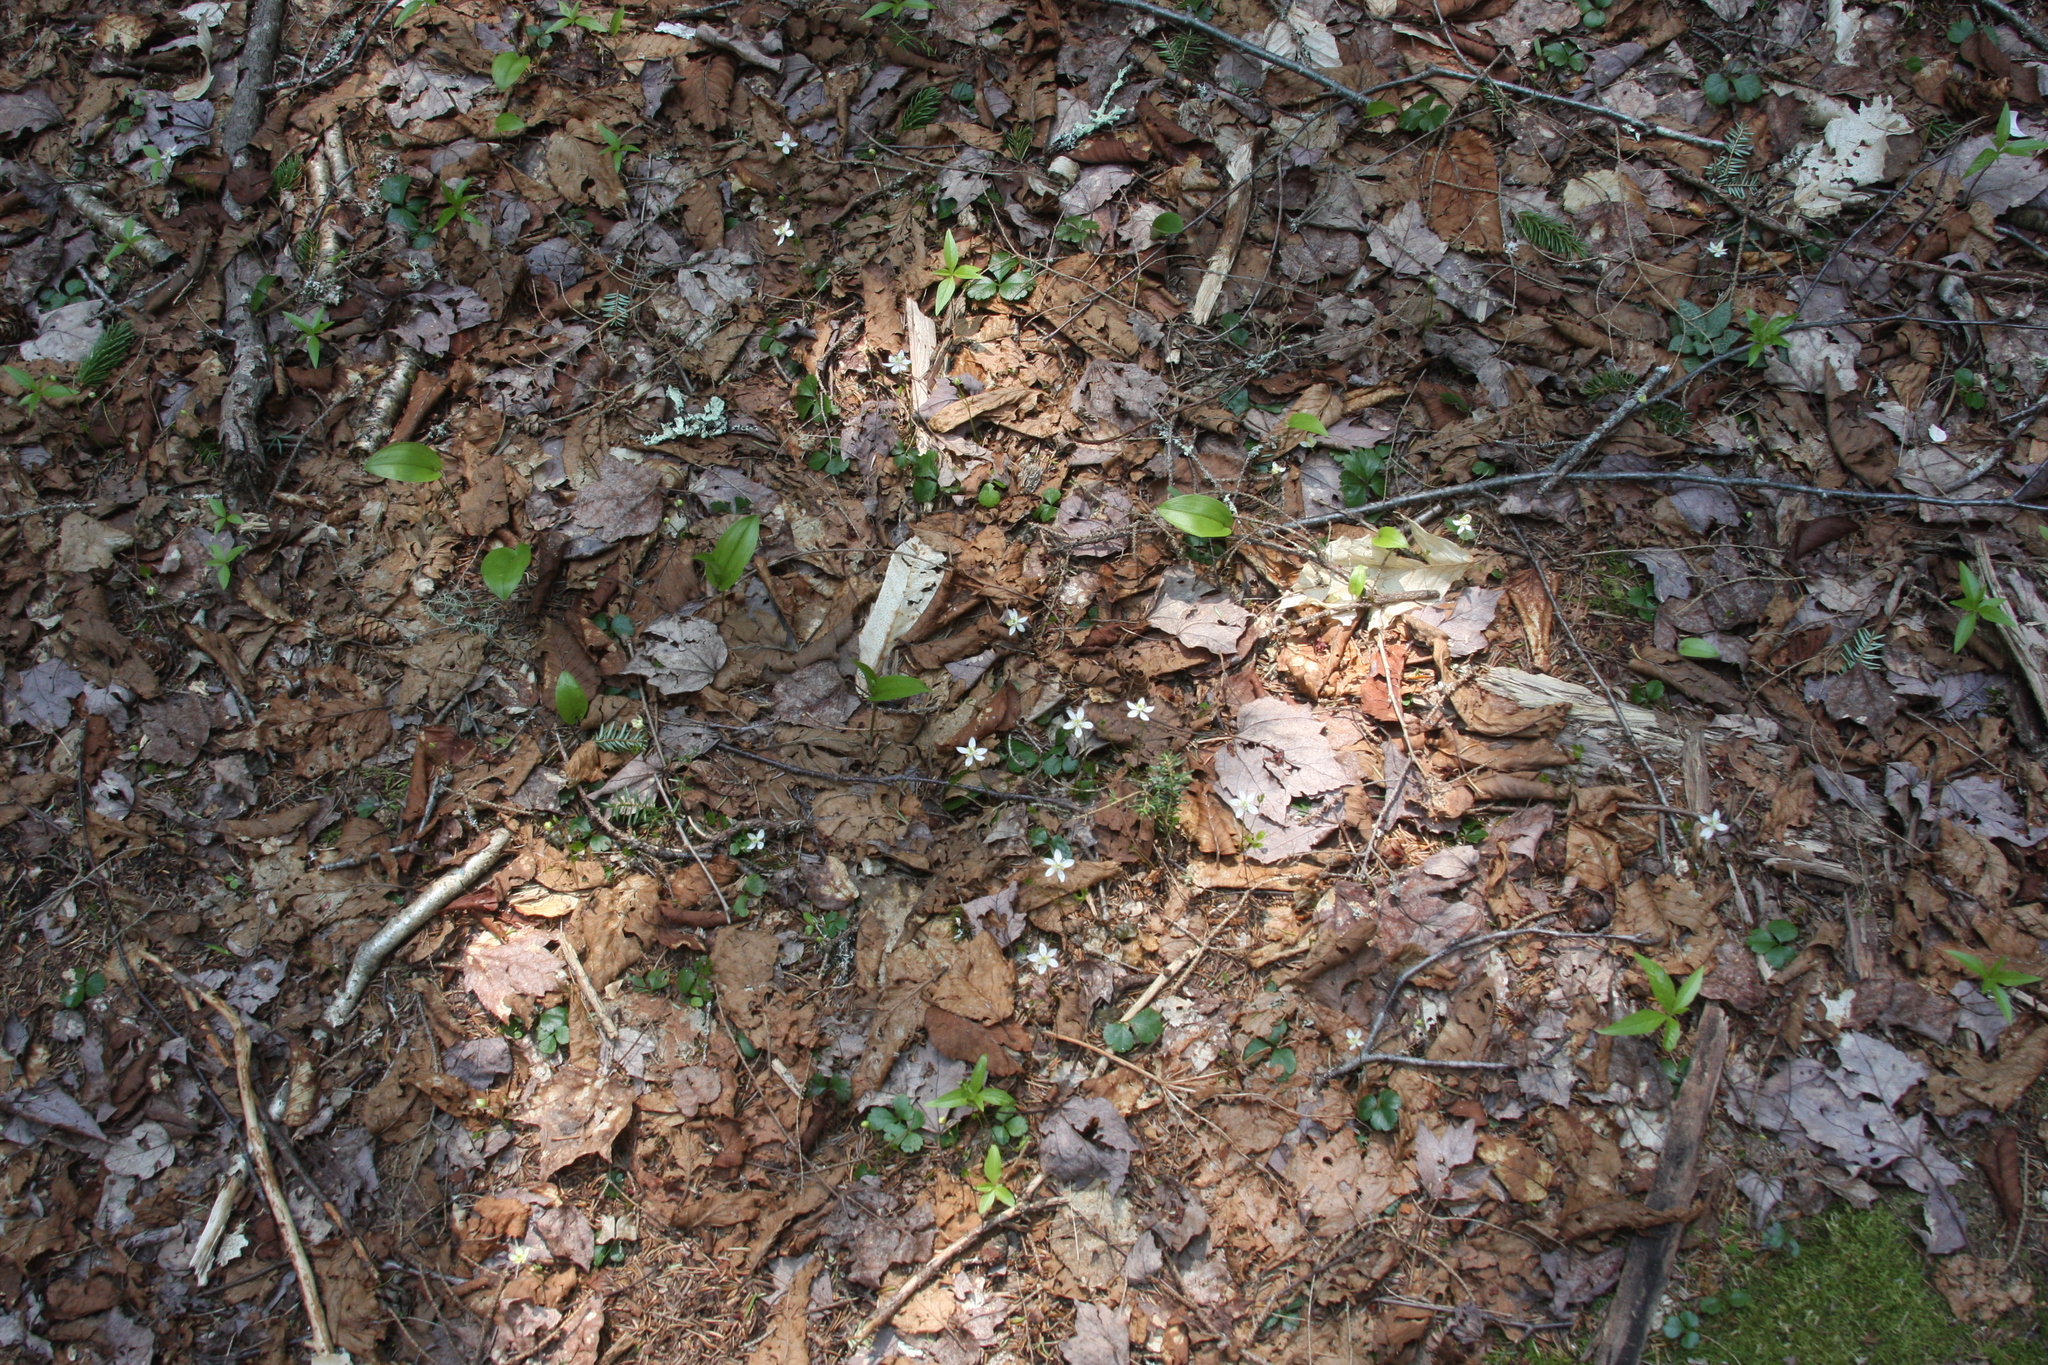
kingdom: Plantae
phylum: Tracheophyta
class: Magnoliopsida
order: Ranunculales
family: Ranunculaceae
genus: Coptis
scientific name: Coptis trifolia
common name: Canker-root
